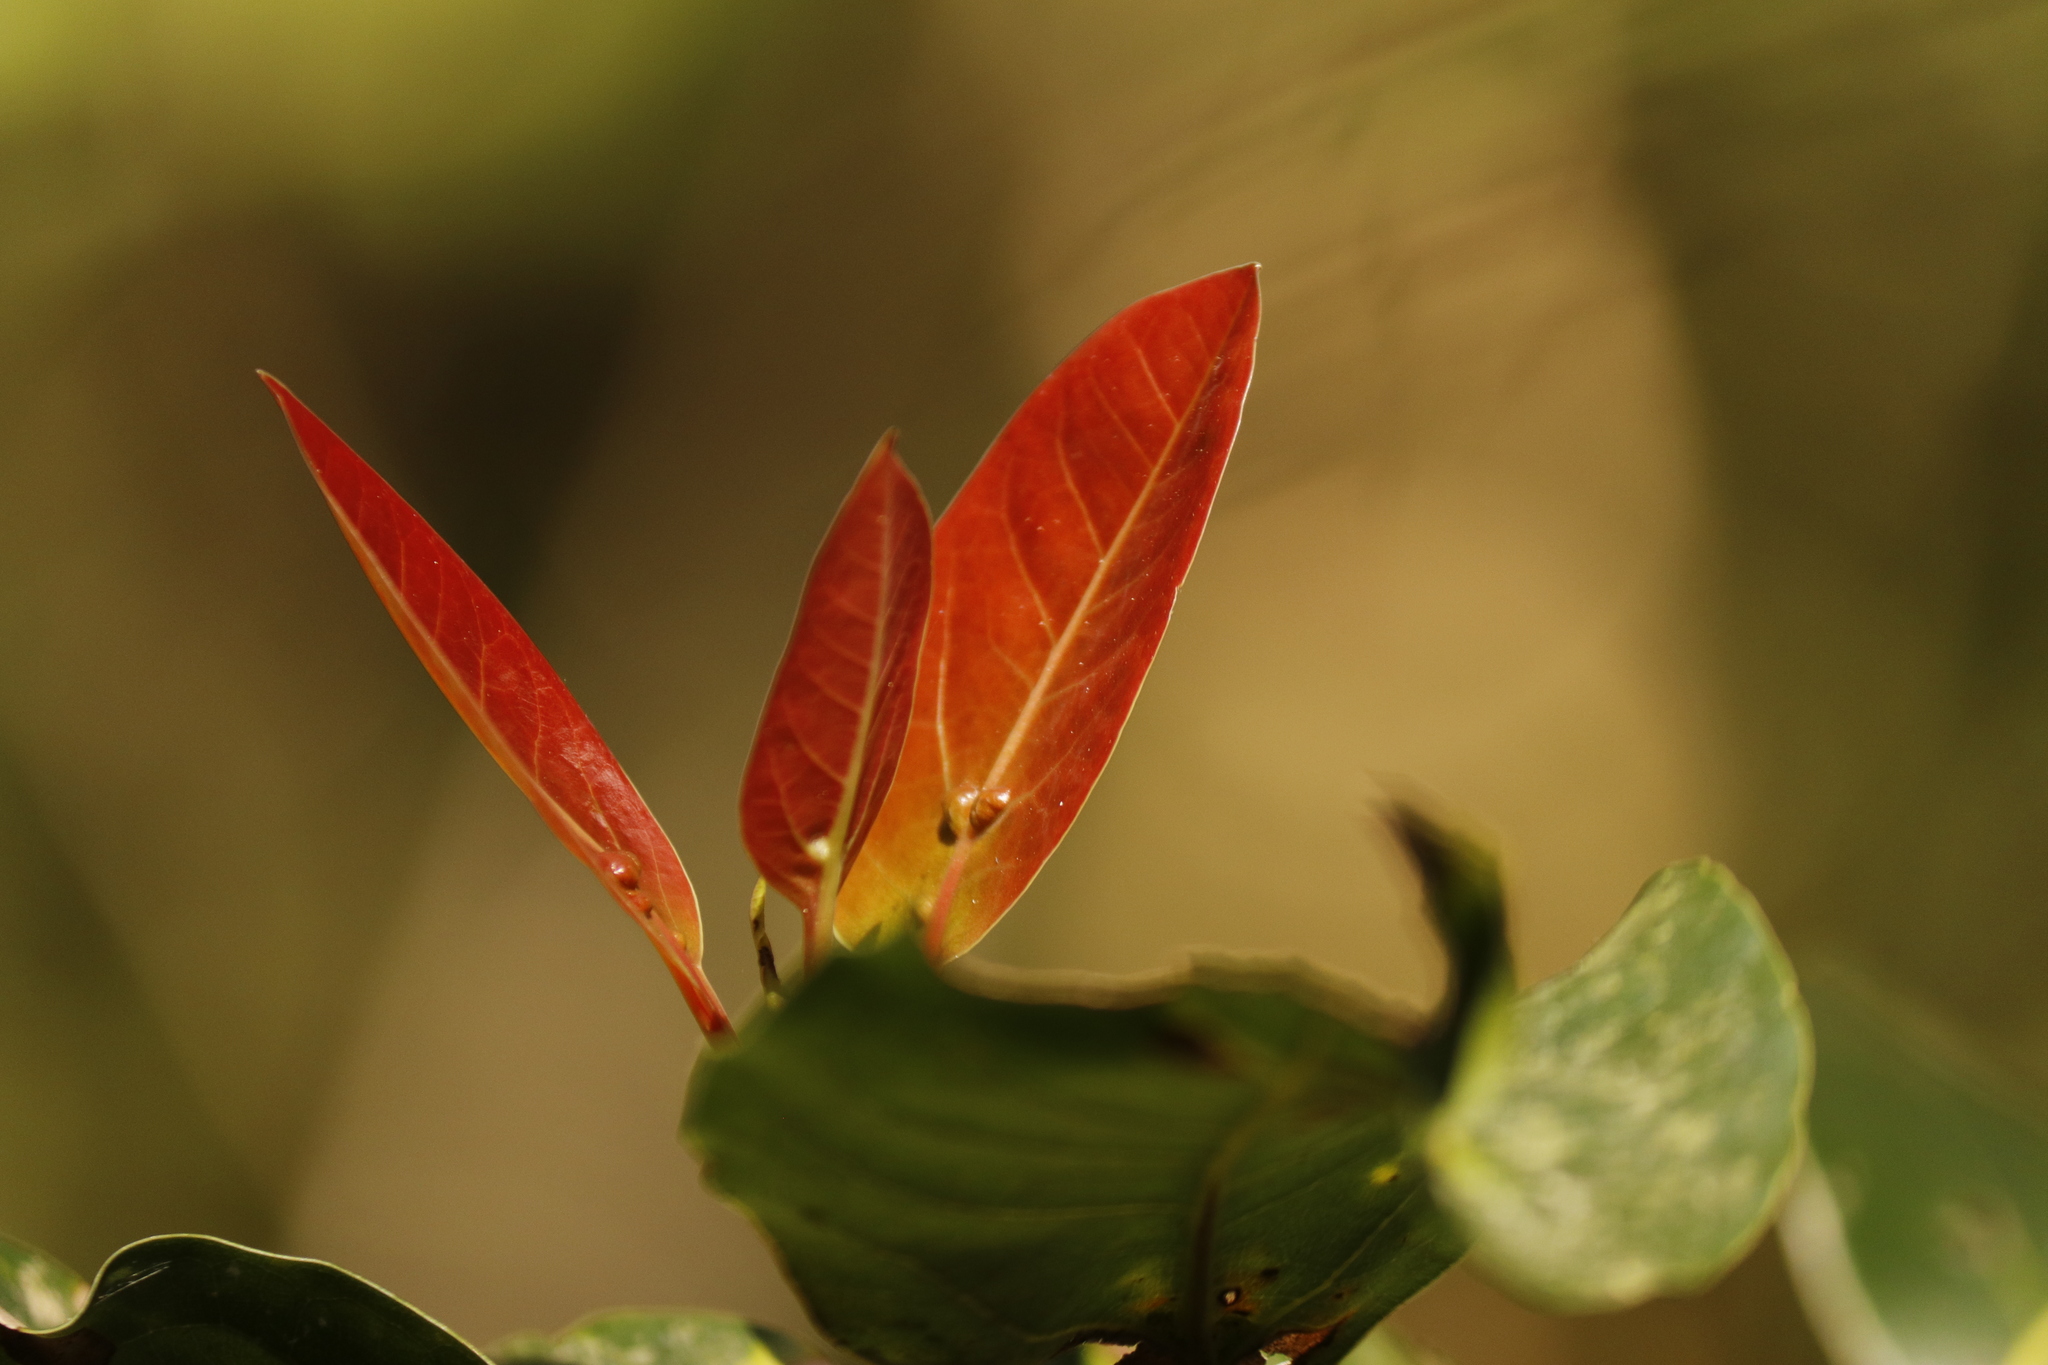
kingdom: Plantae
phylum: Tracheophyta
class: Magnoliopsida
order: Laurales
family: Lauraceae
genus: Ocotea
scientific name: Ocotea bullata
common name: Black stinkwood
